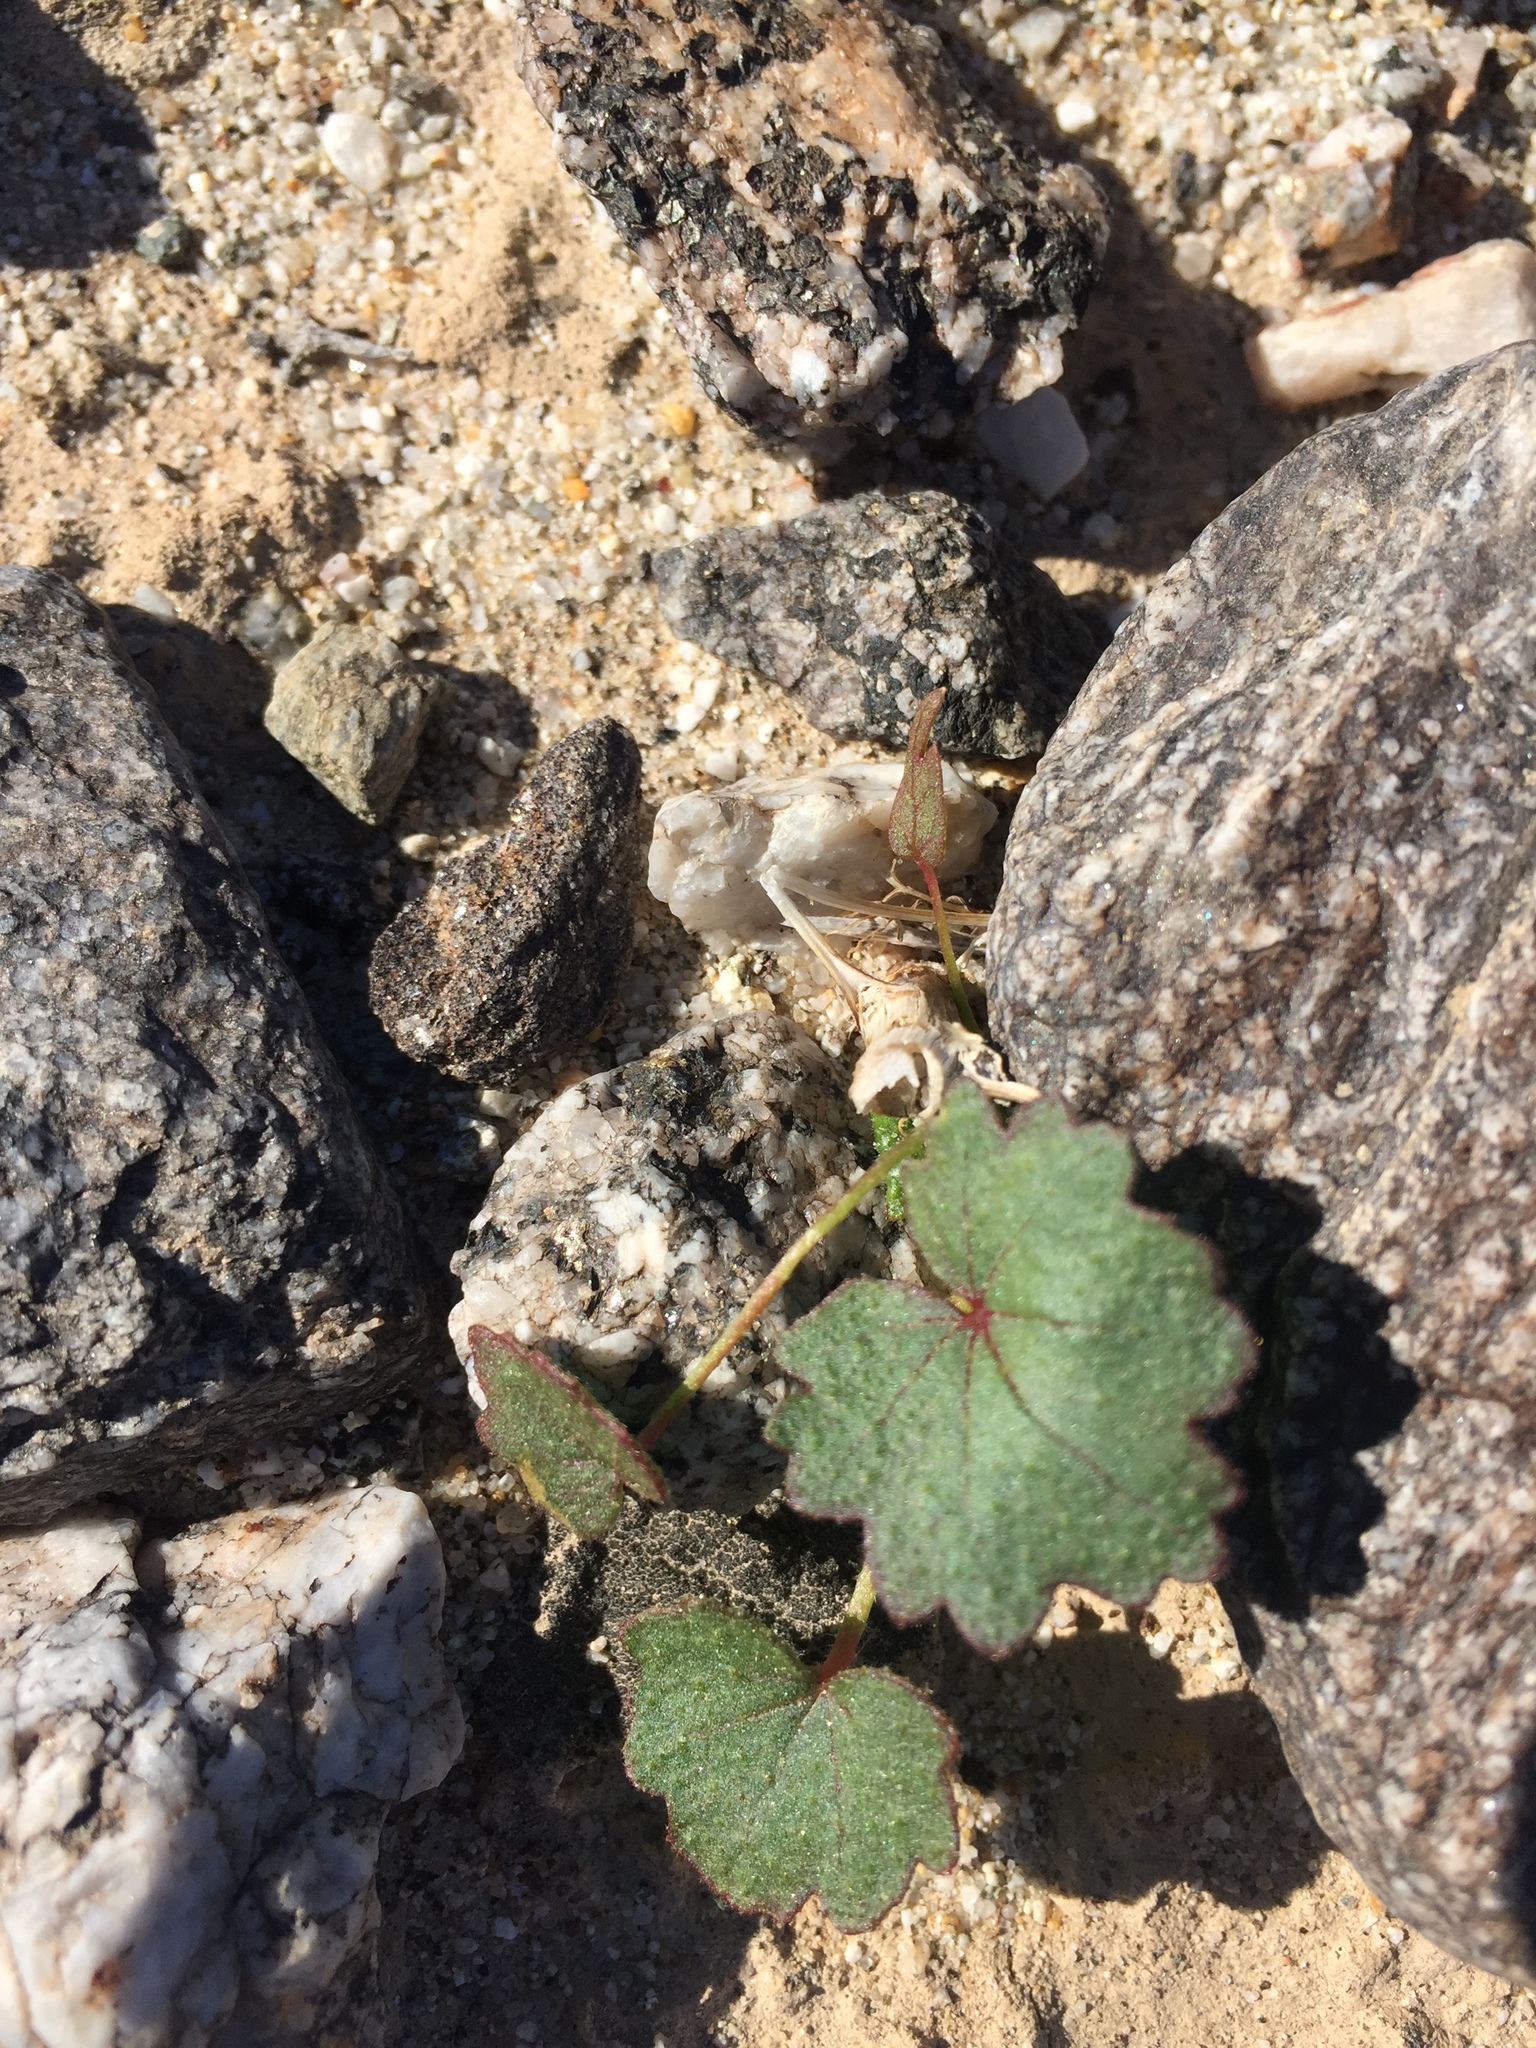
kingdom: Plantae
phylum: Tracheophyta
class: Magnoliopsida
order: Malvales
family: Malvaceae
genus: Eremalche
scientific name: Eremalche rotundifolia
